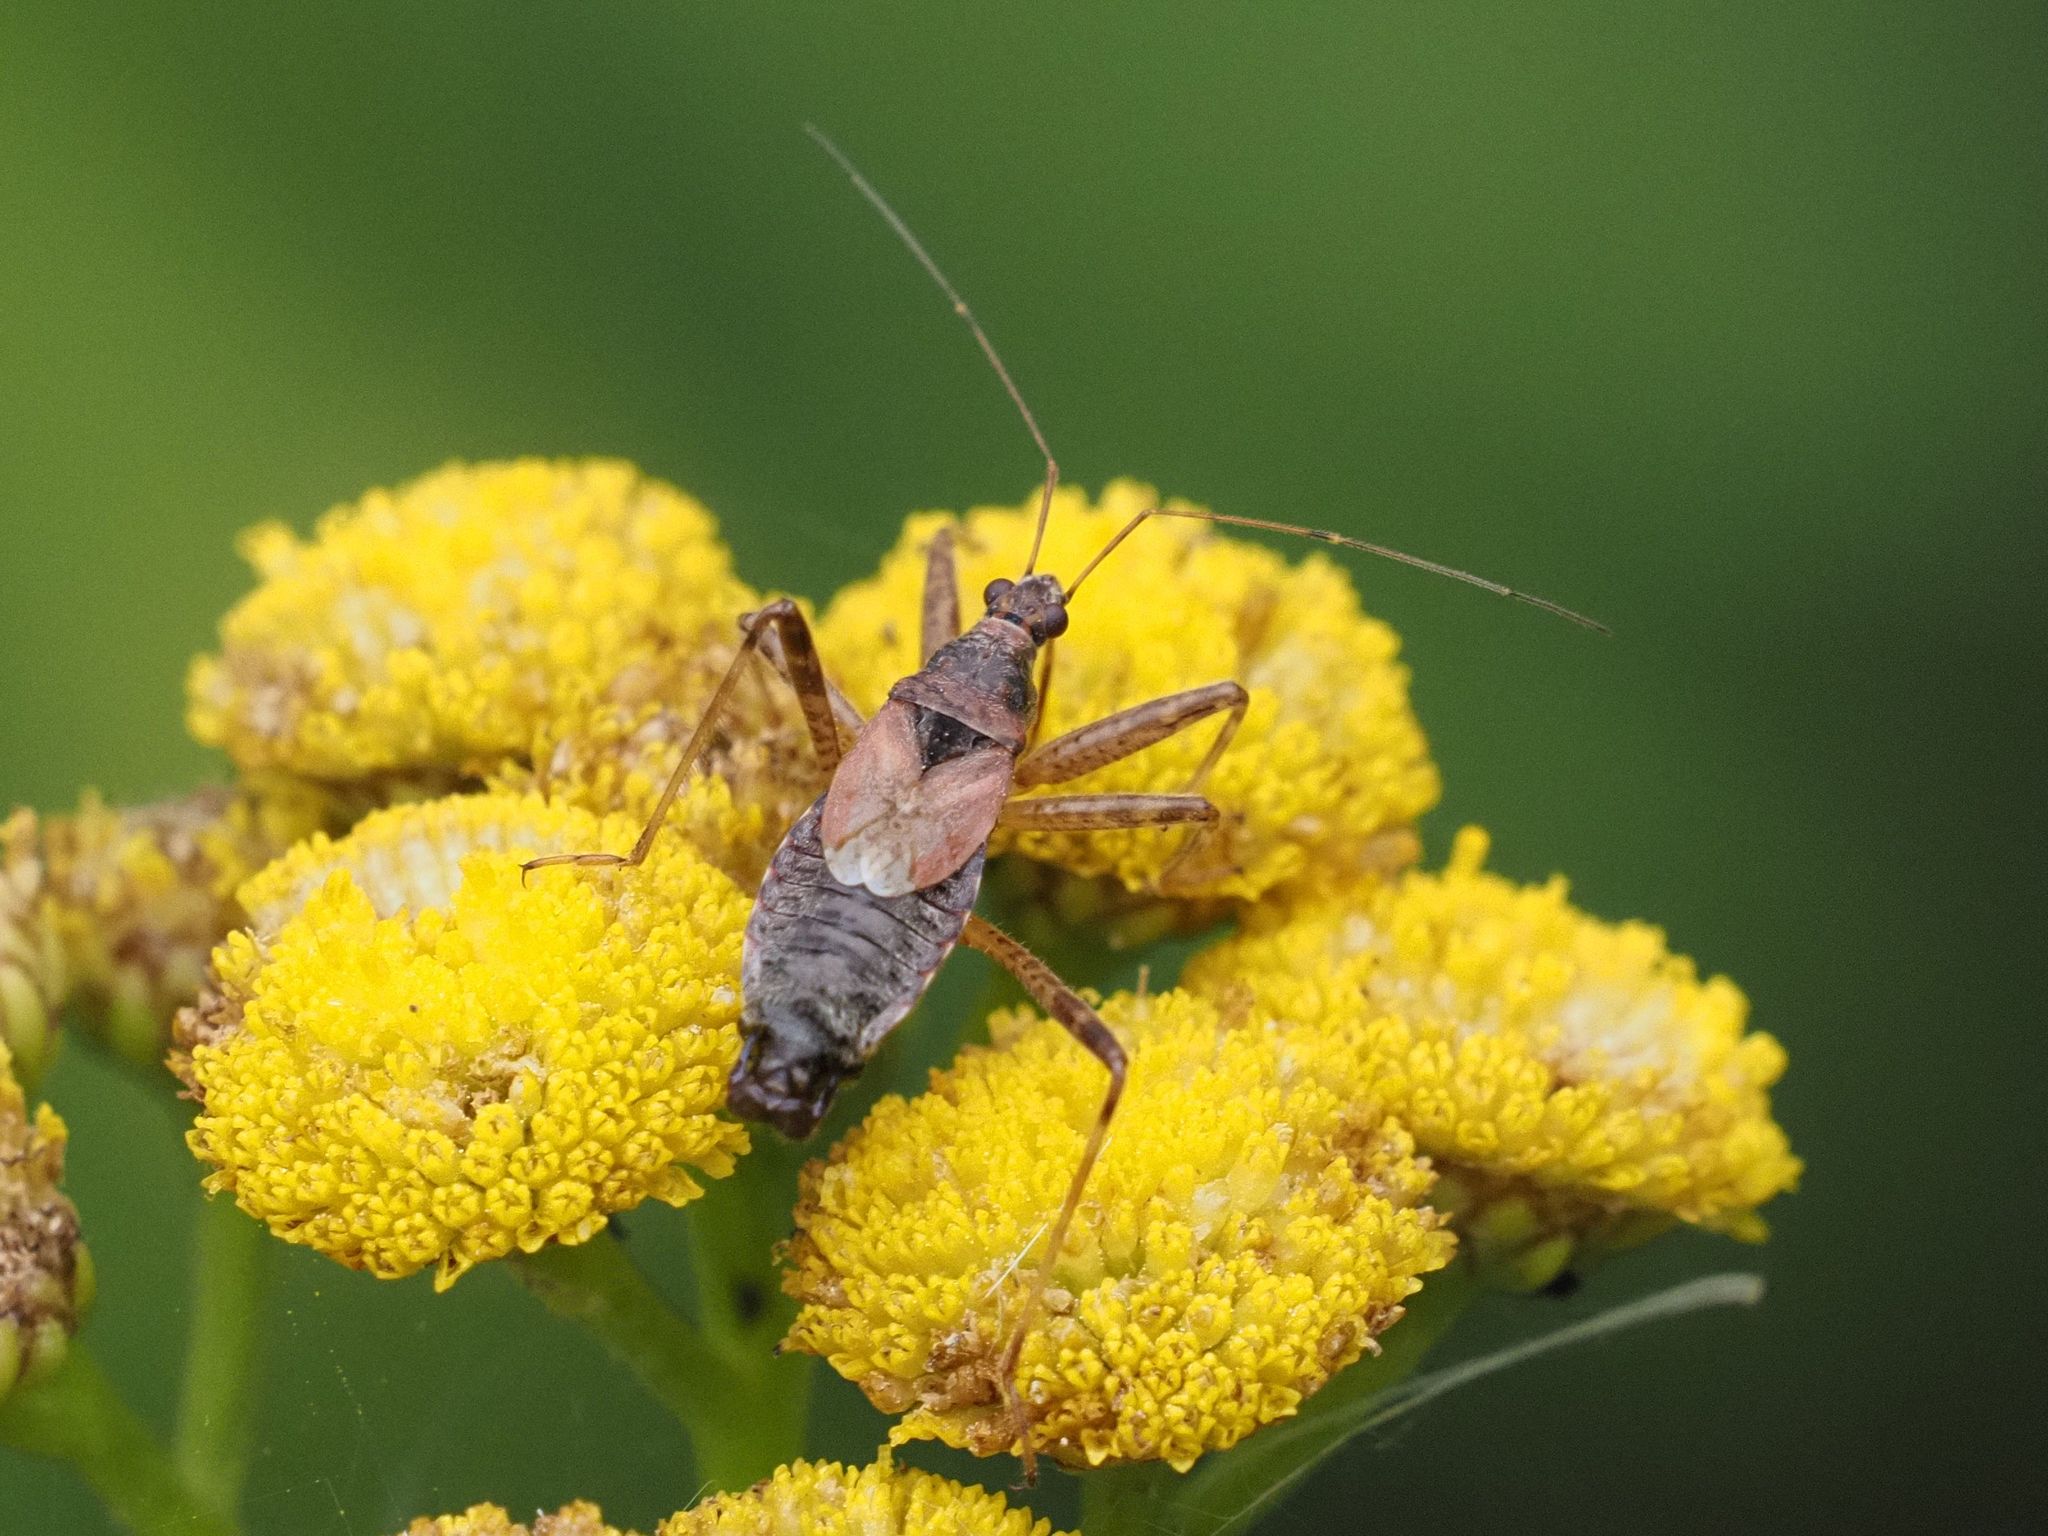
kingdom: Animalia
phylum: Arthropoda
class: Insecta
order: Hemiptera
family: Nabidae
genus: Himacerus
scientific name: Himacerus apterus
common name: Tree damsel bug
